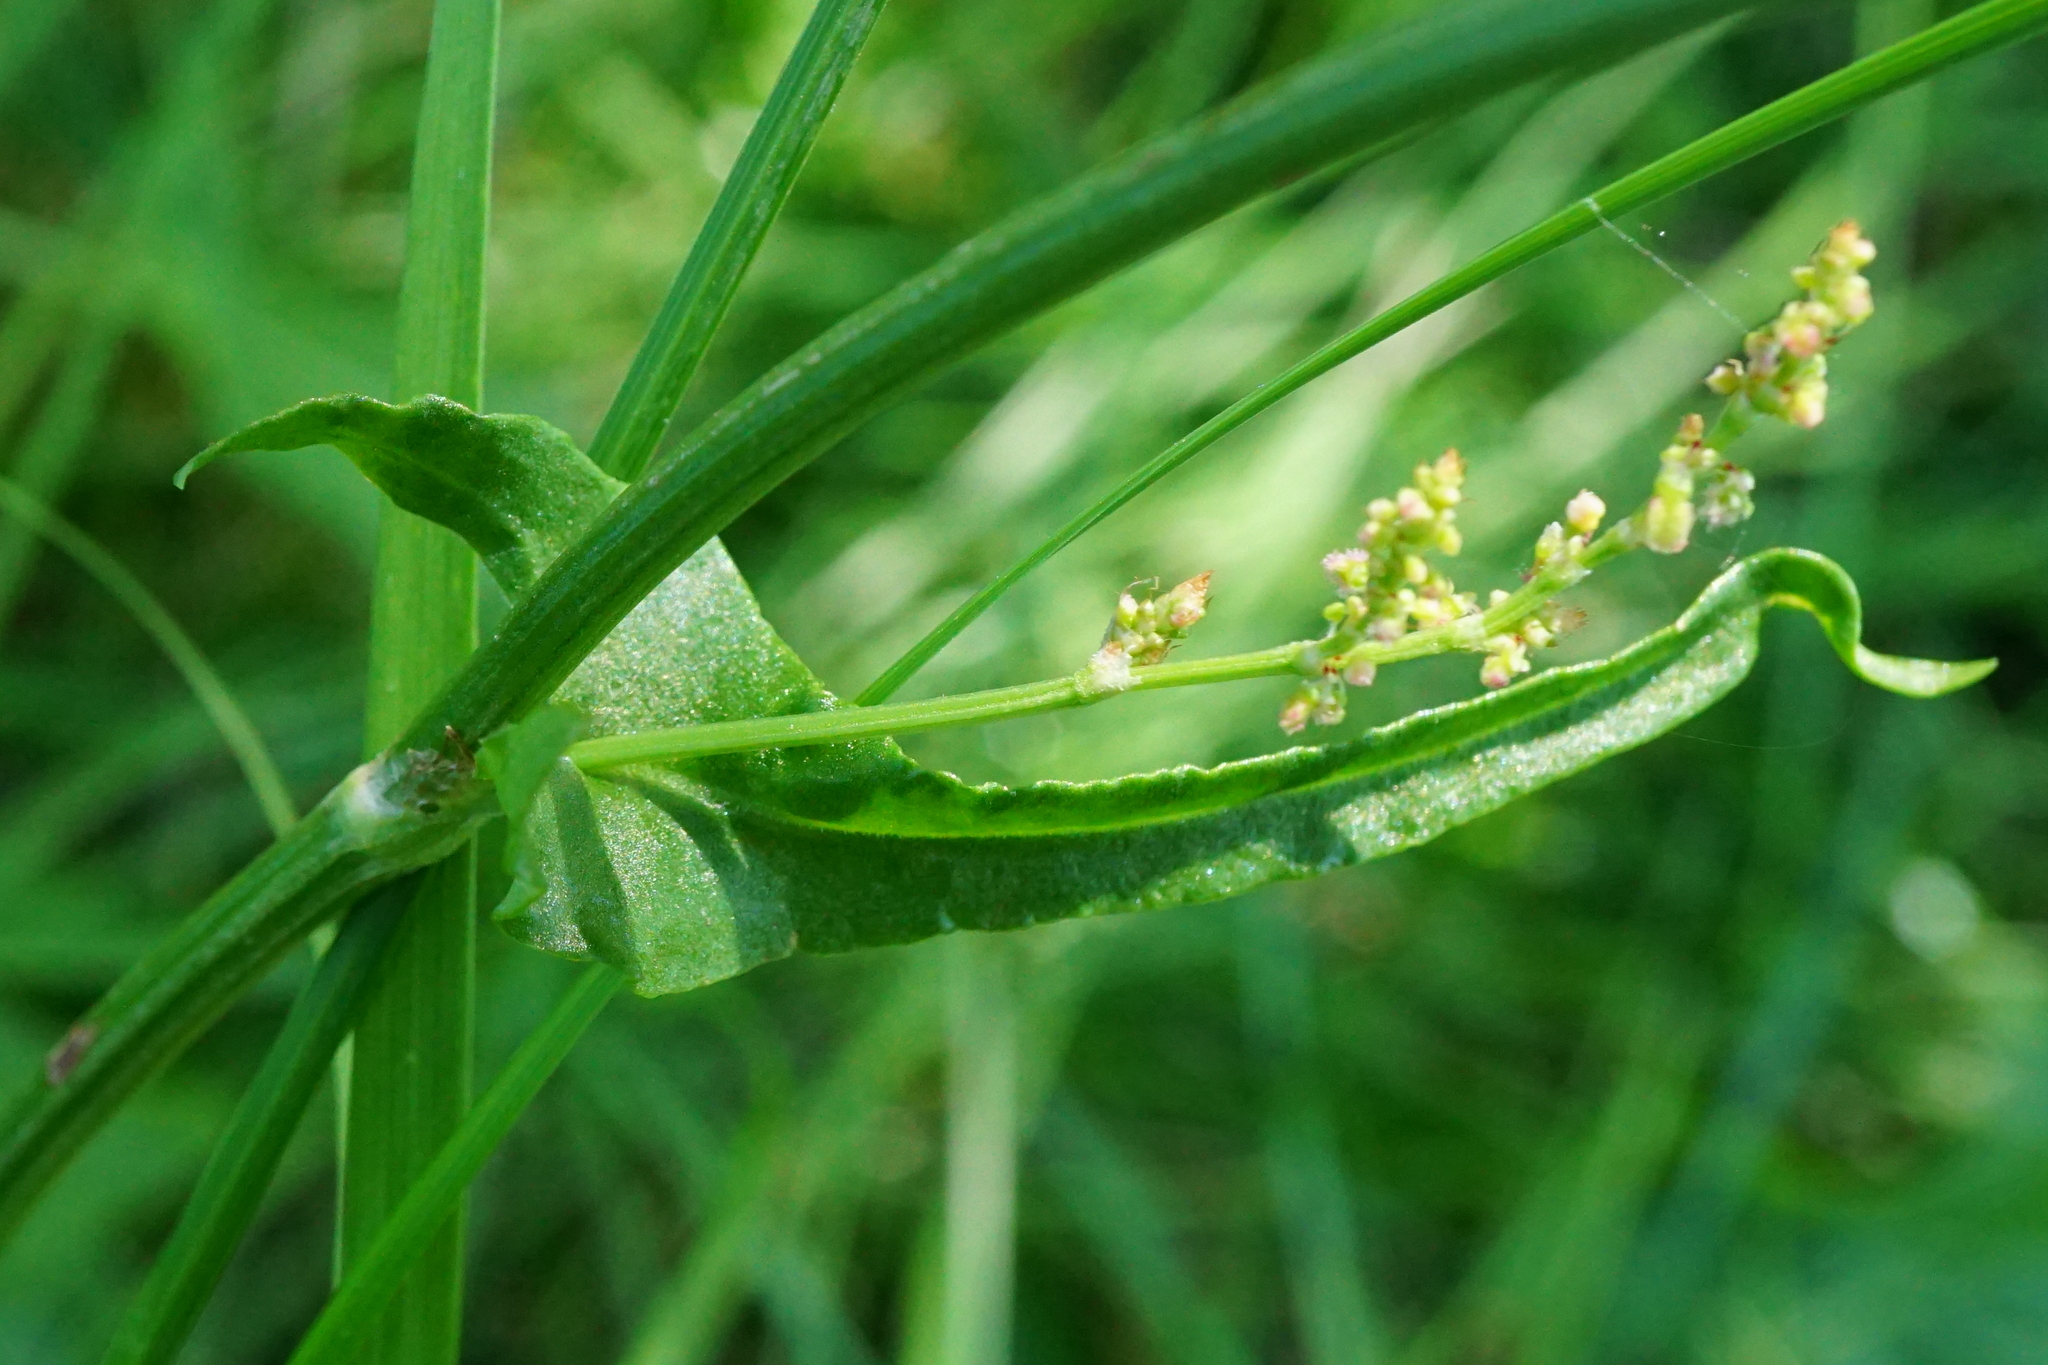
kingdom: Plantae
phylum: Tracheophyta
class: Magnoliopsida
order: Caryophyllales
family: Polygonaceae
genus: Rumex
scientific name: Rumex thyrsiflorus
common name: Garden sorrel
